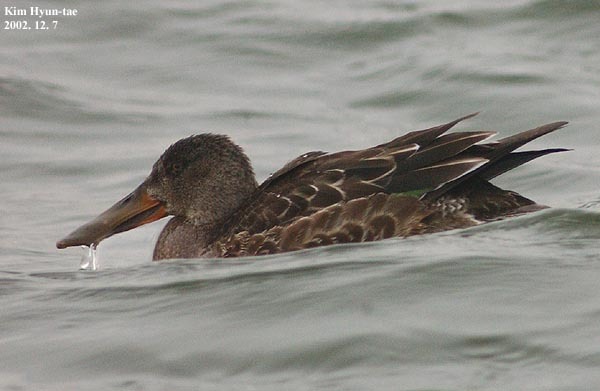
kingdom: Animalia
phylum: Chordata
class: Aves
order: Anseriformes
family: Anatidae
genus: Spatula
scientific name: Spatula clypeata
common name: Northern shoveler
